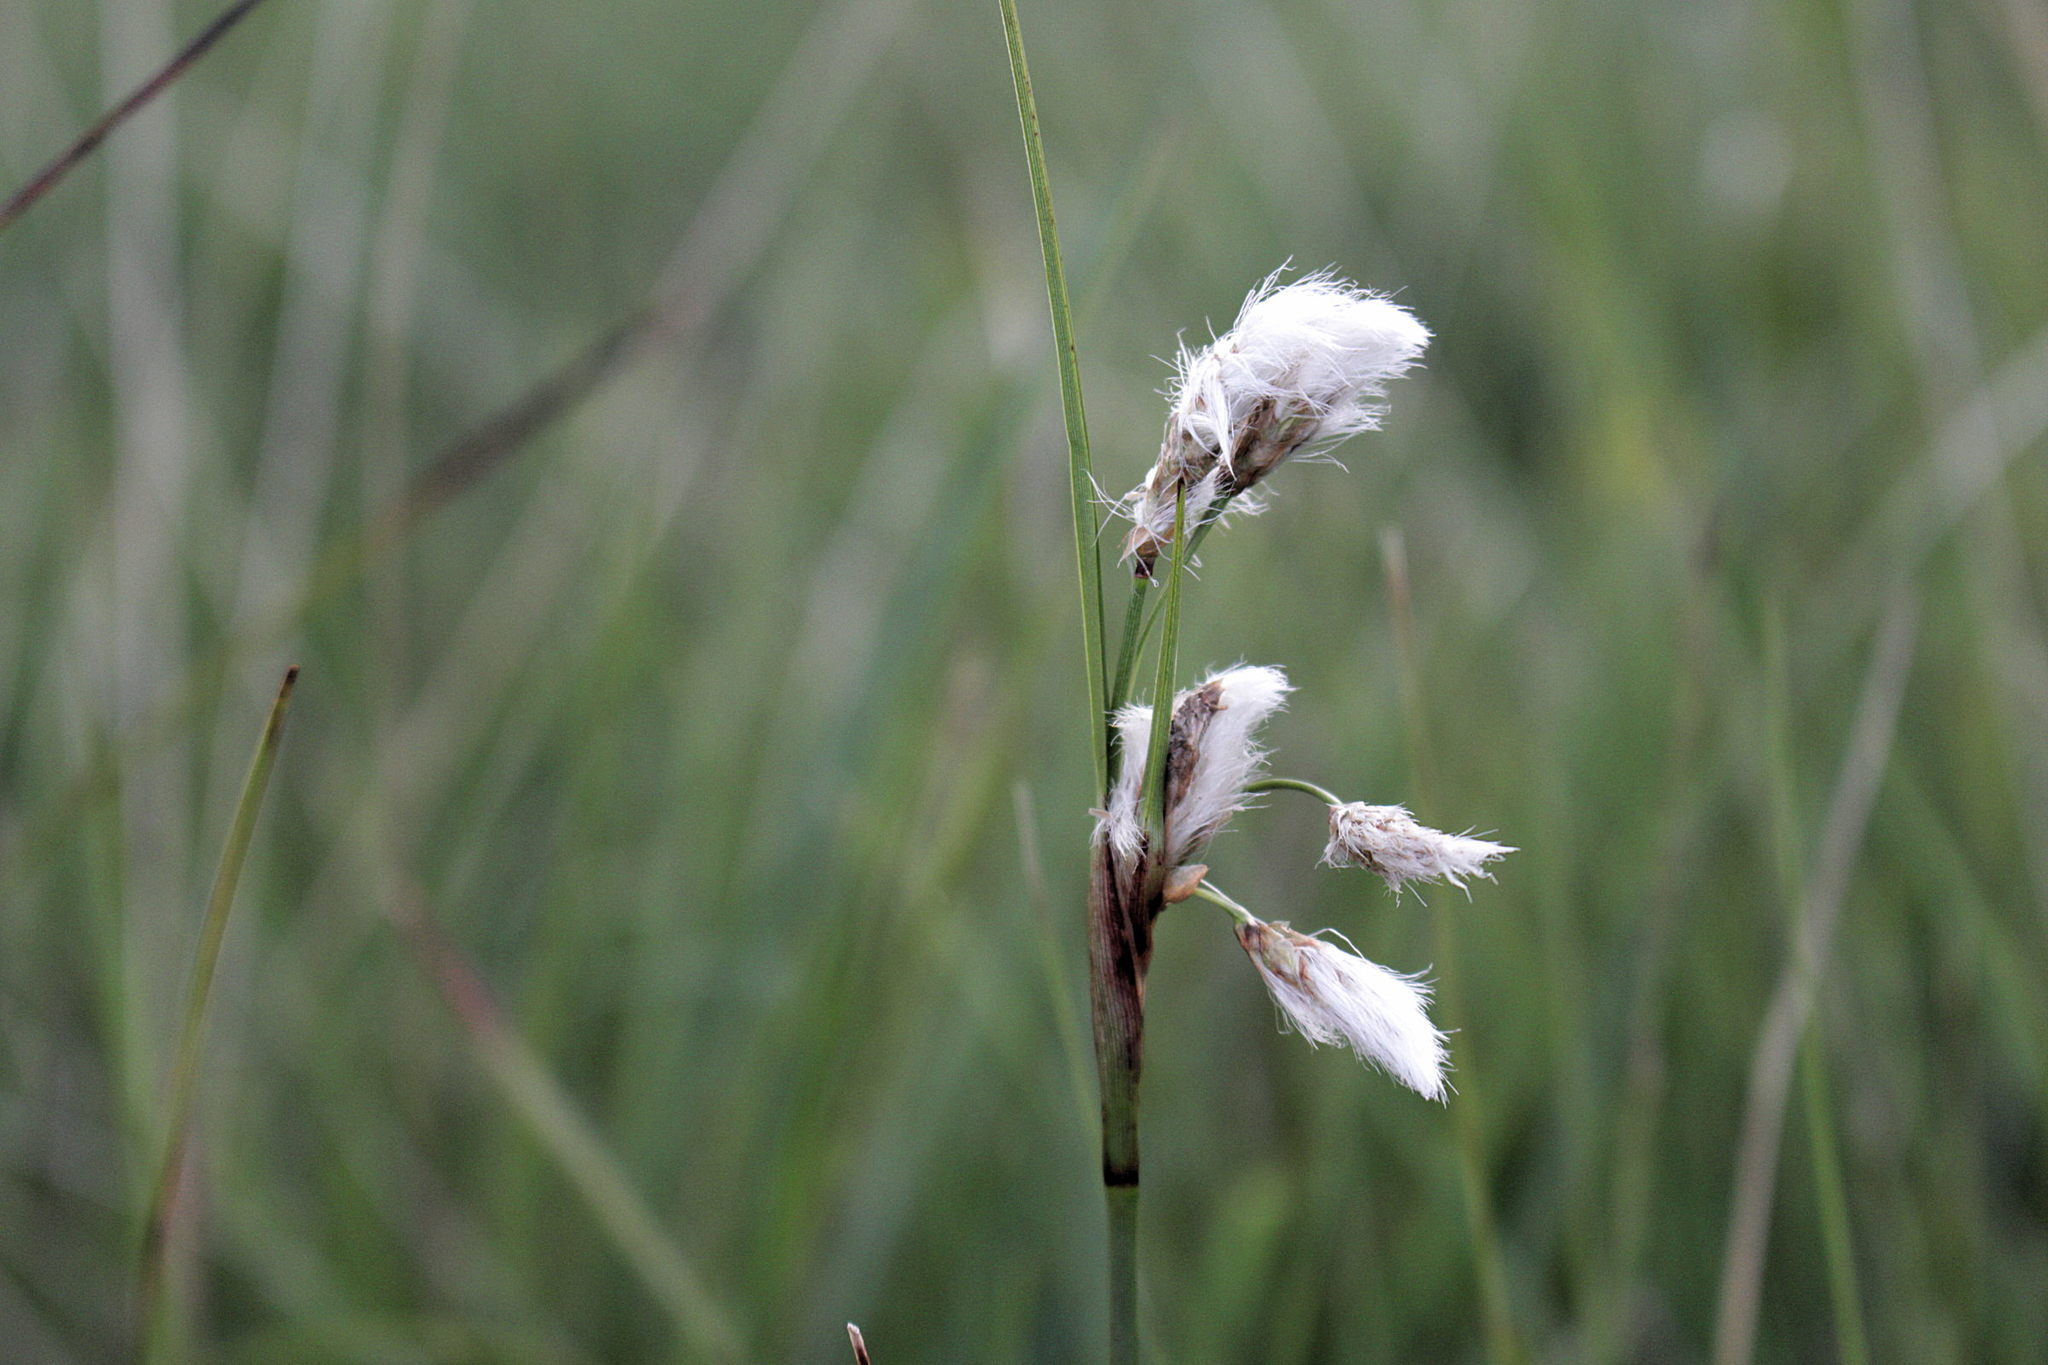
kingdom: Plantae
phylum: Tracheophyta
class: Liliopsida
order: Poales
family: Cyperaceae
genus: Eriophorum
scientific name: Eriophorum angustifolium
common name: Common cottongrass
